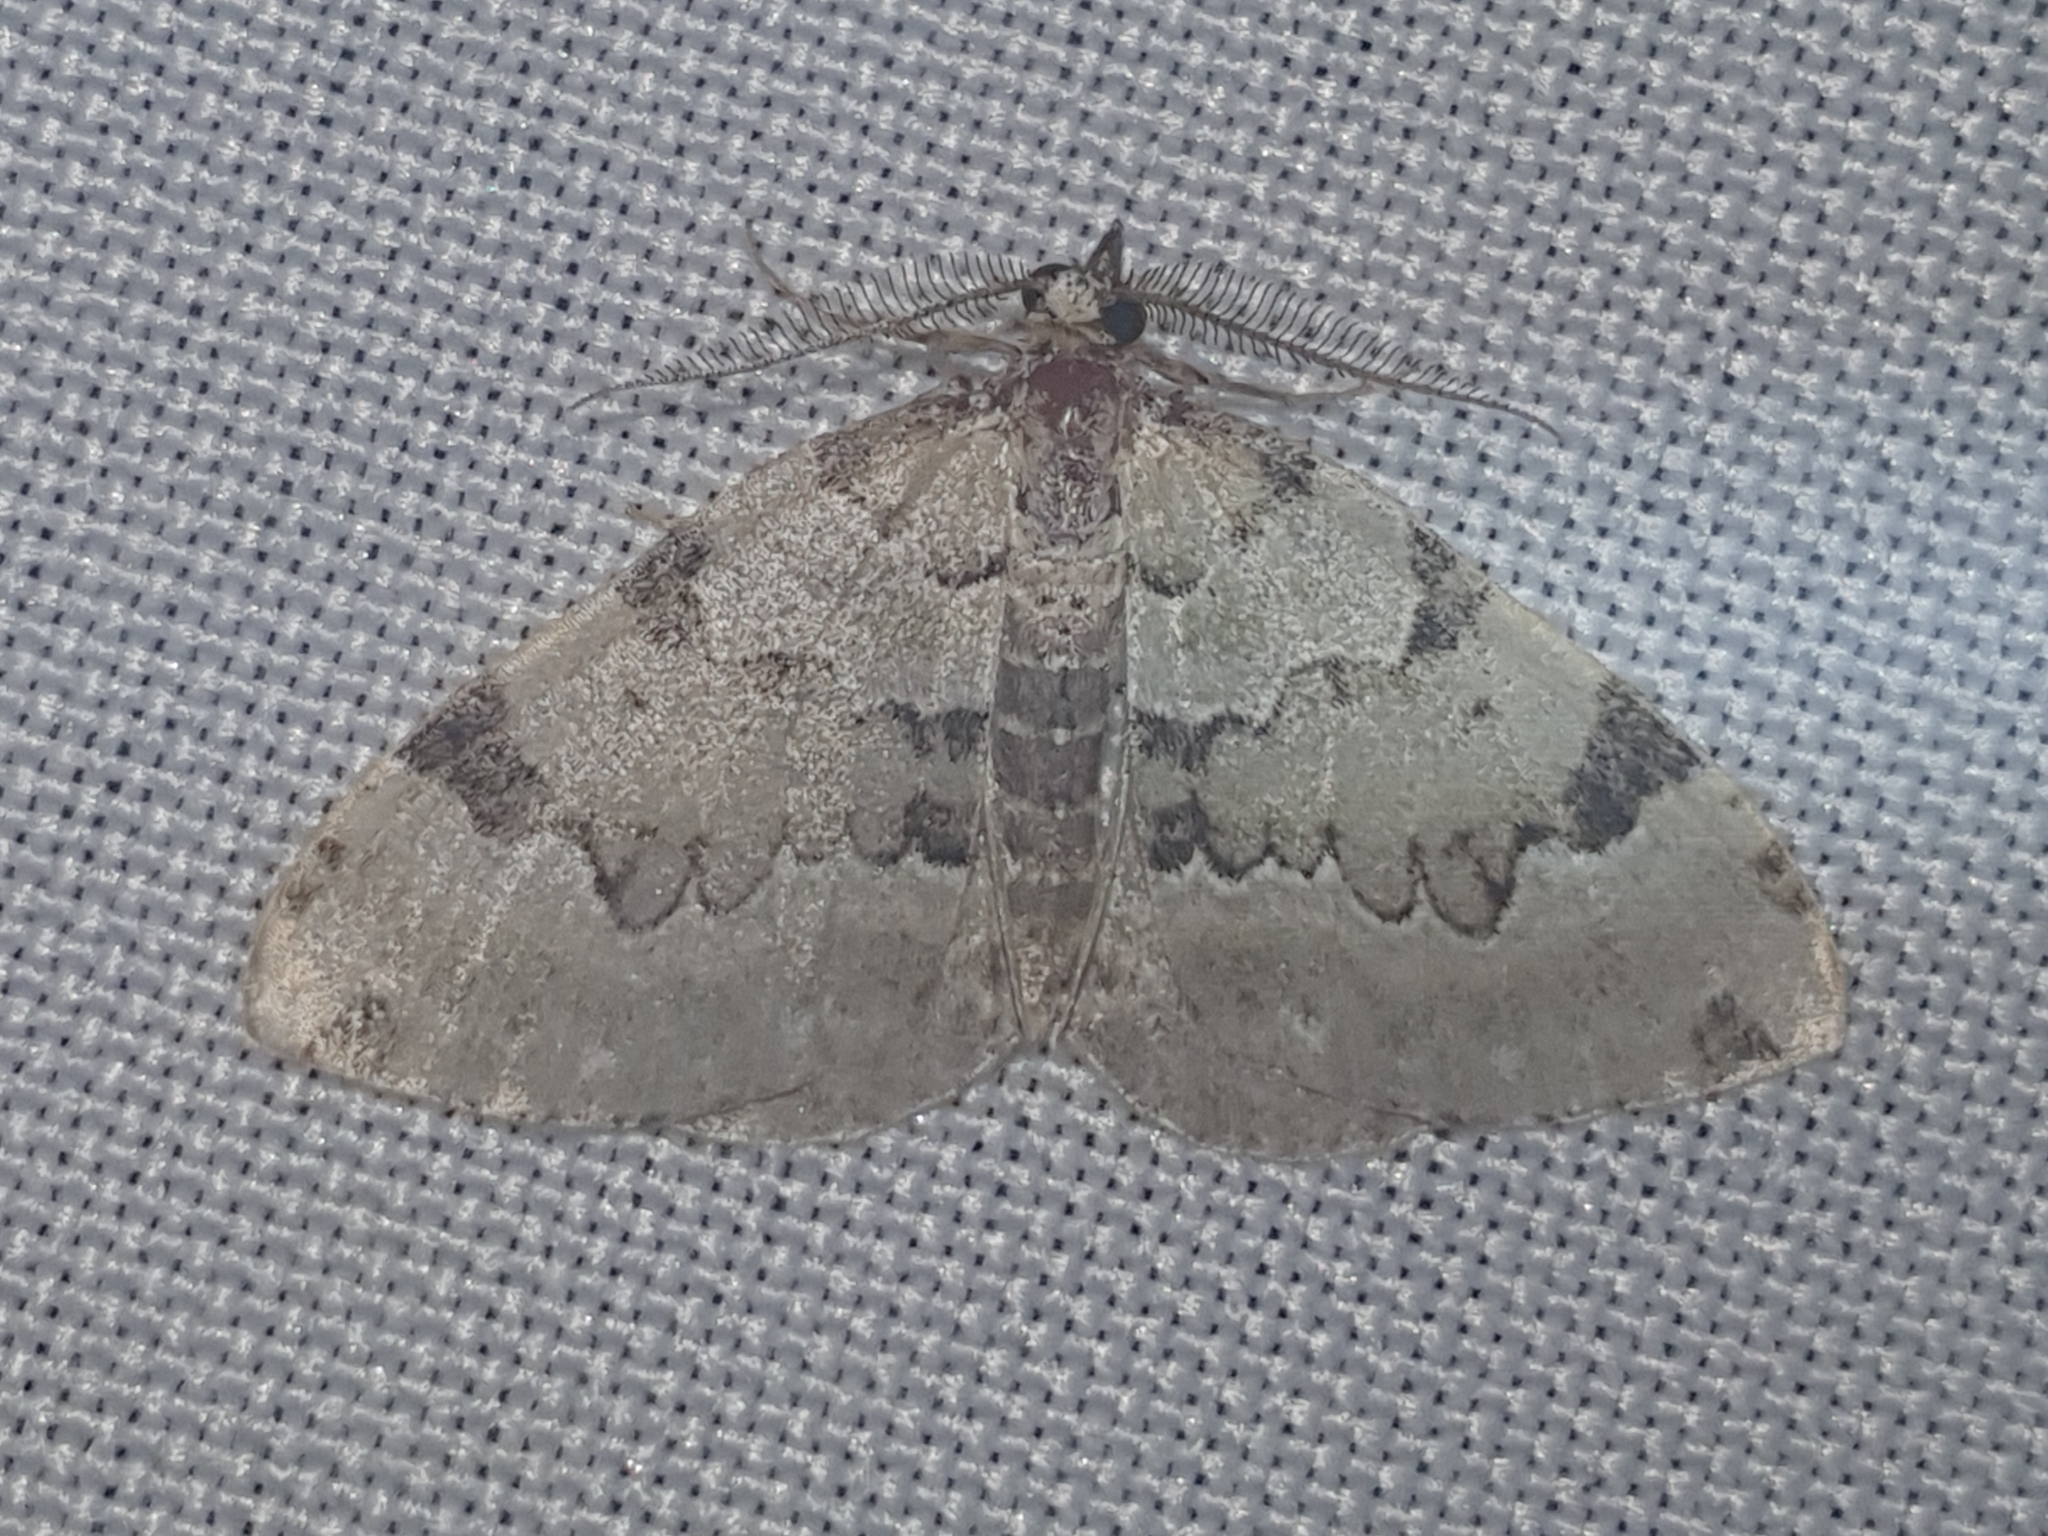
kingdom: Animalia
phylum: Arthropoda
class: Insecta
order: Lepidoptera
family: Geometridae
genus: Colostygia
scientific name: Colostygia pectinataria
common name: Green carpet
